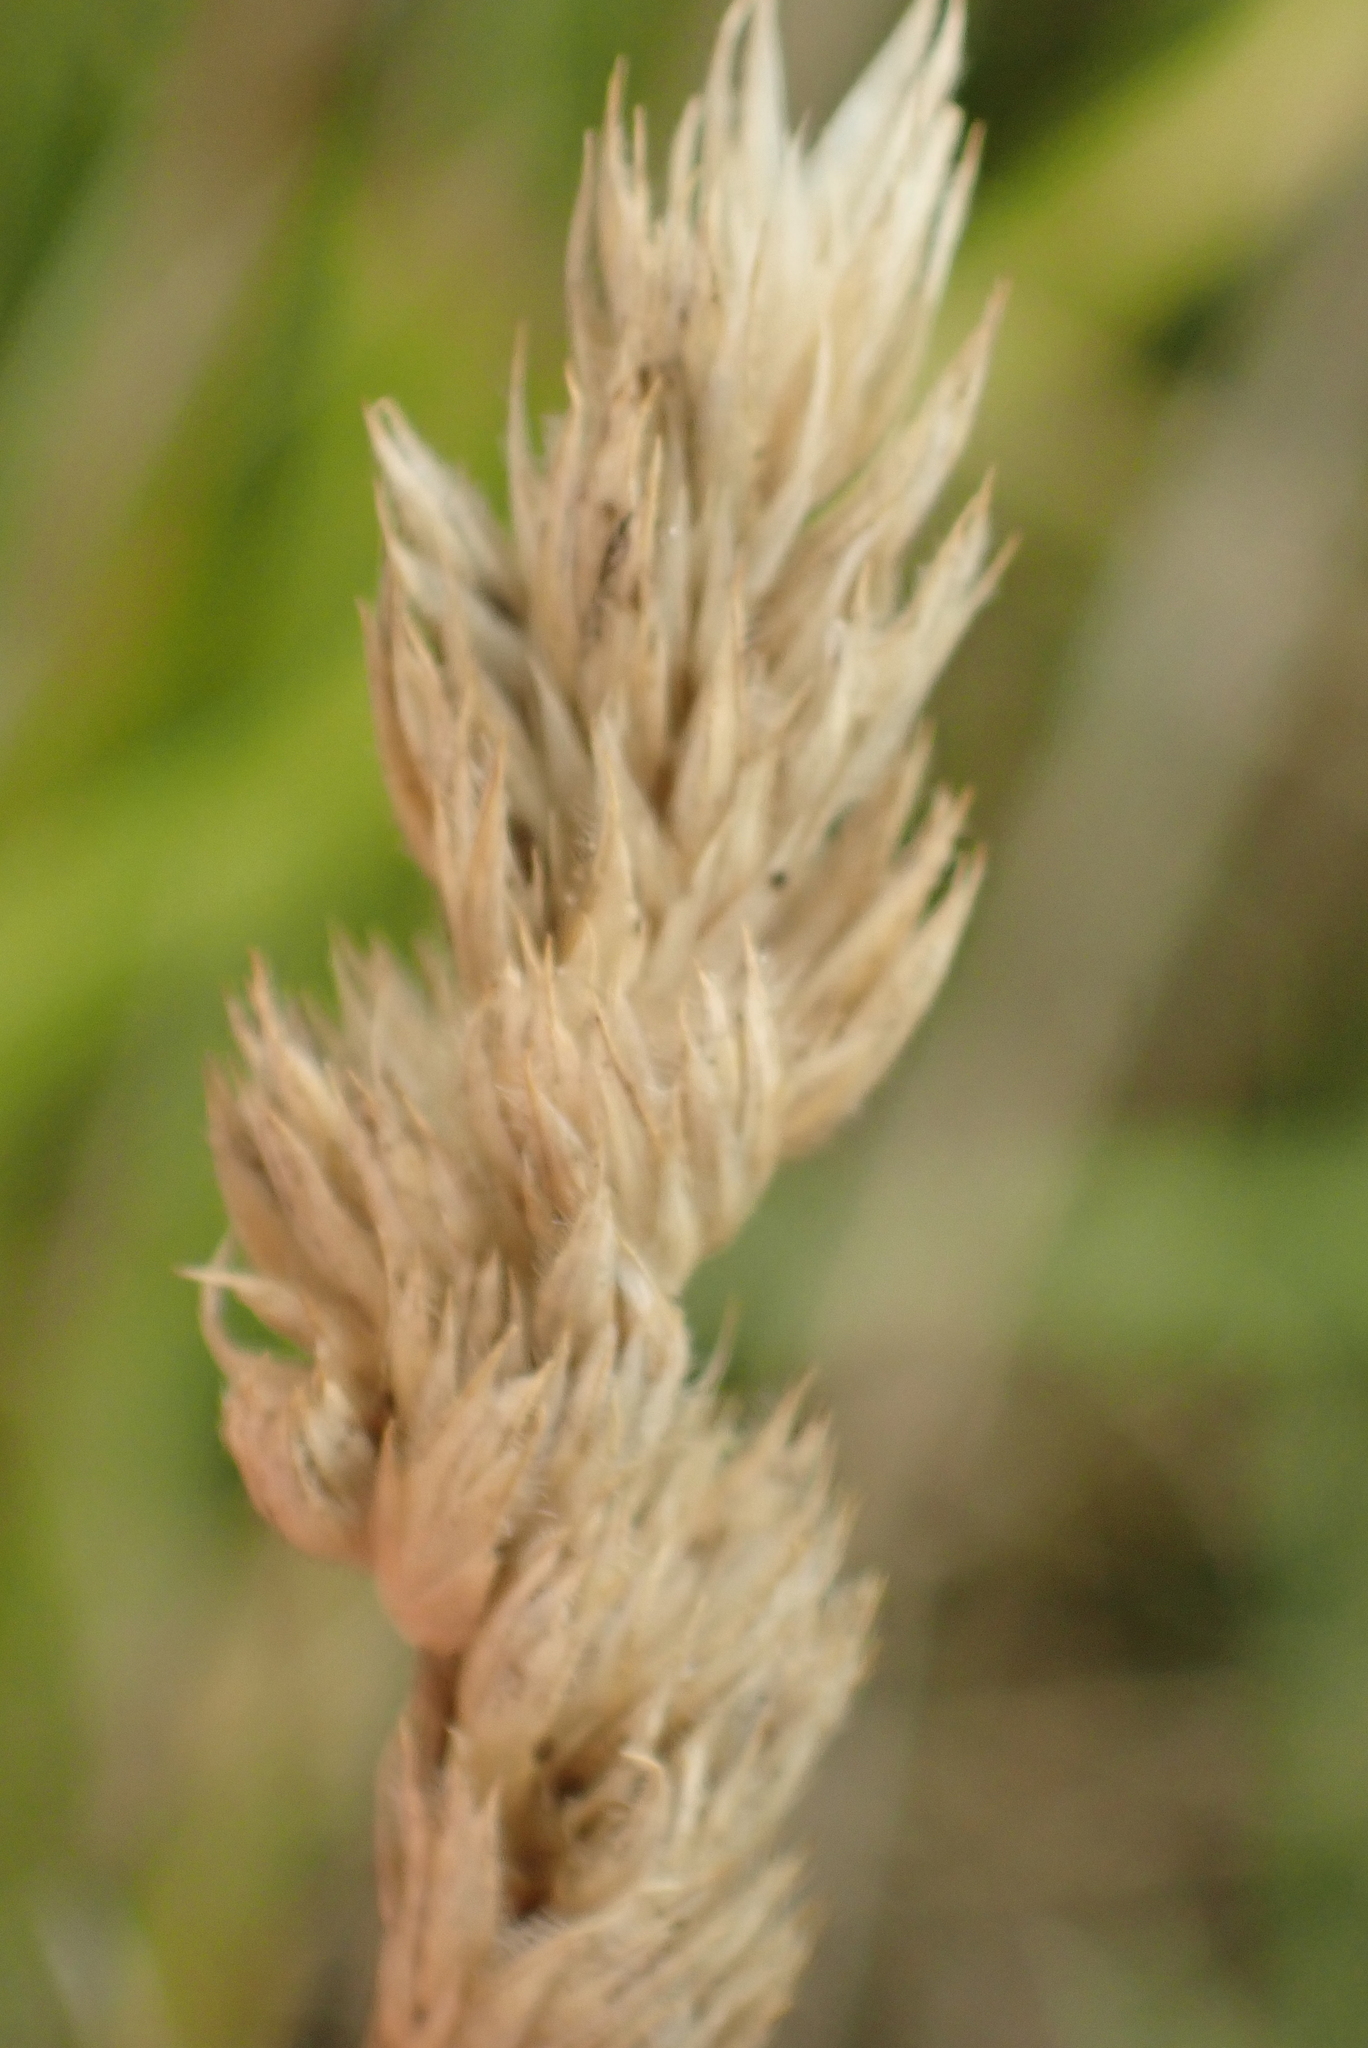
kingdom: Plantae
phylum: Tracheophyta
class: Liliopsida
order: Poales
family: Poaceae
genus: Dactylis
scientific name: Dactylis glomerata
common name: Orchardgrass
